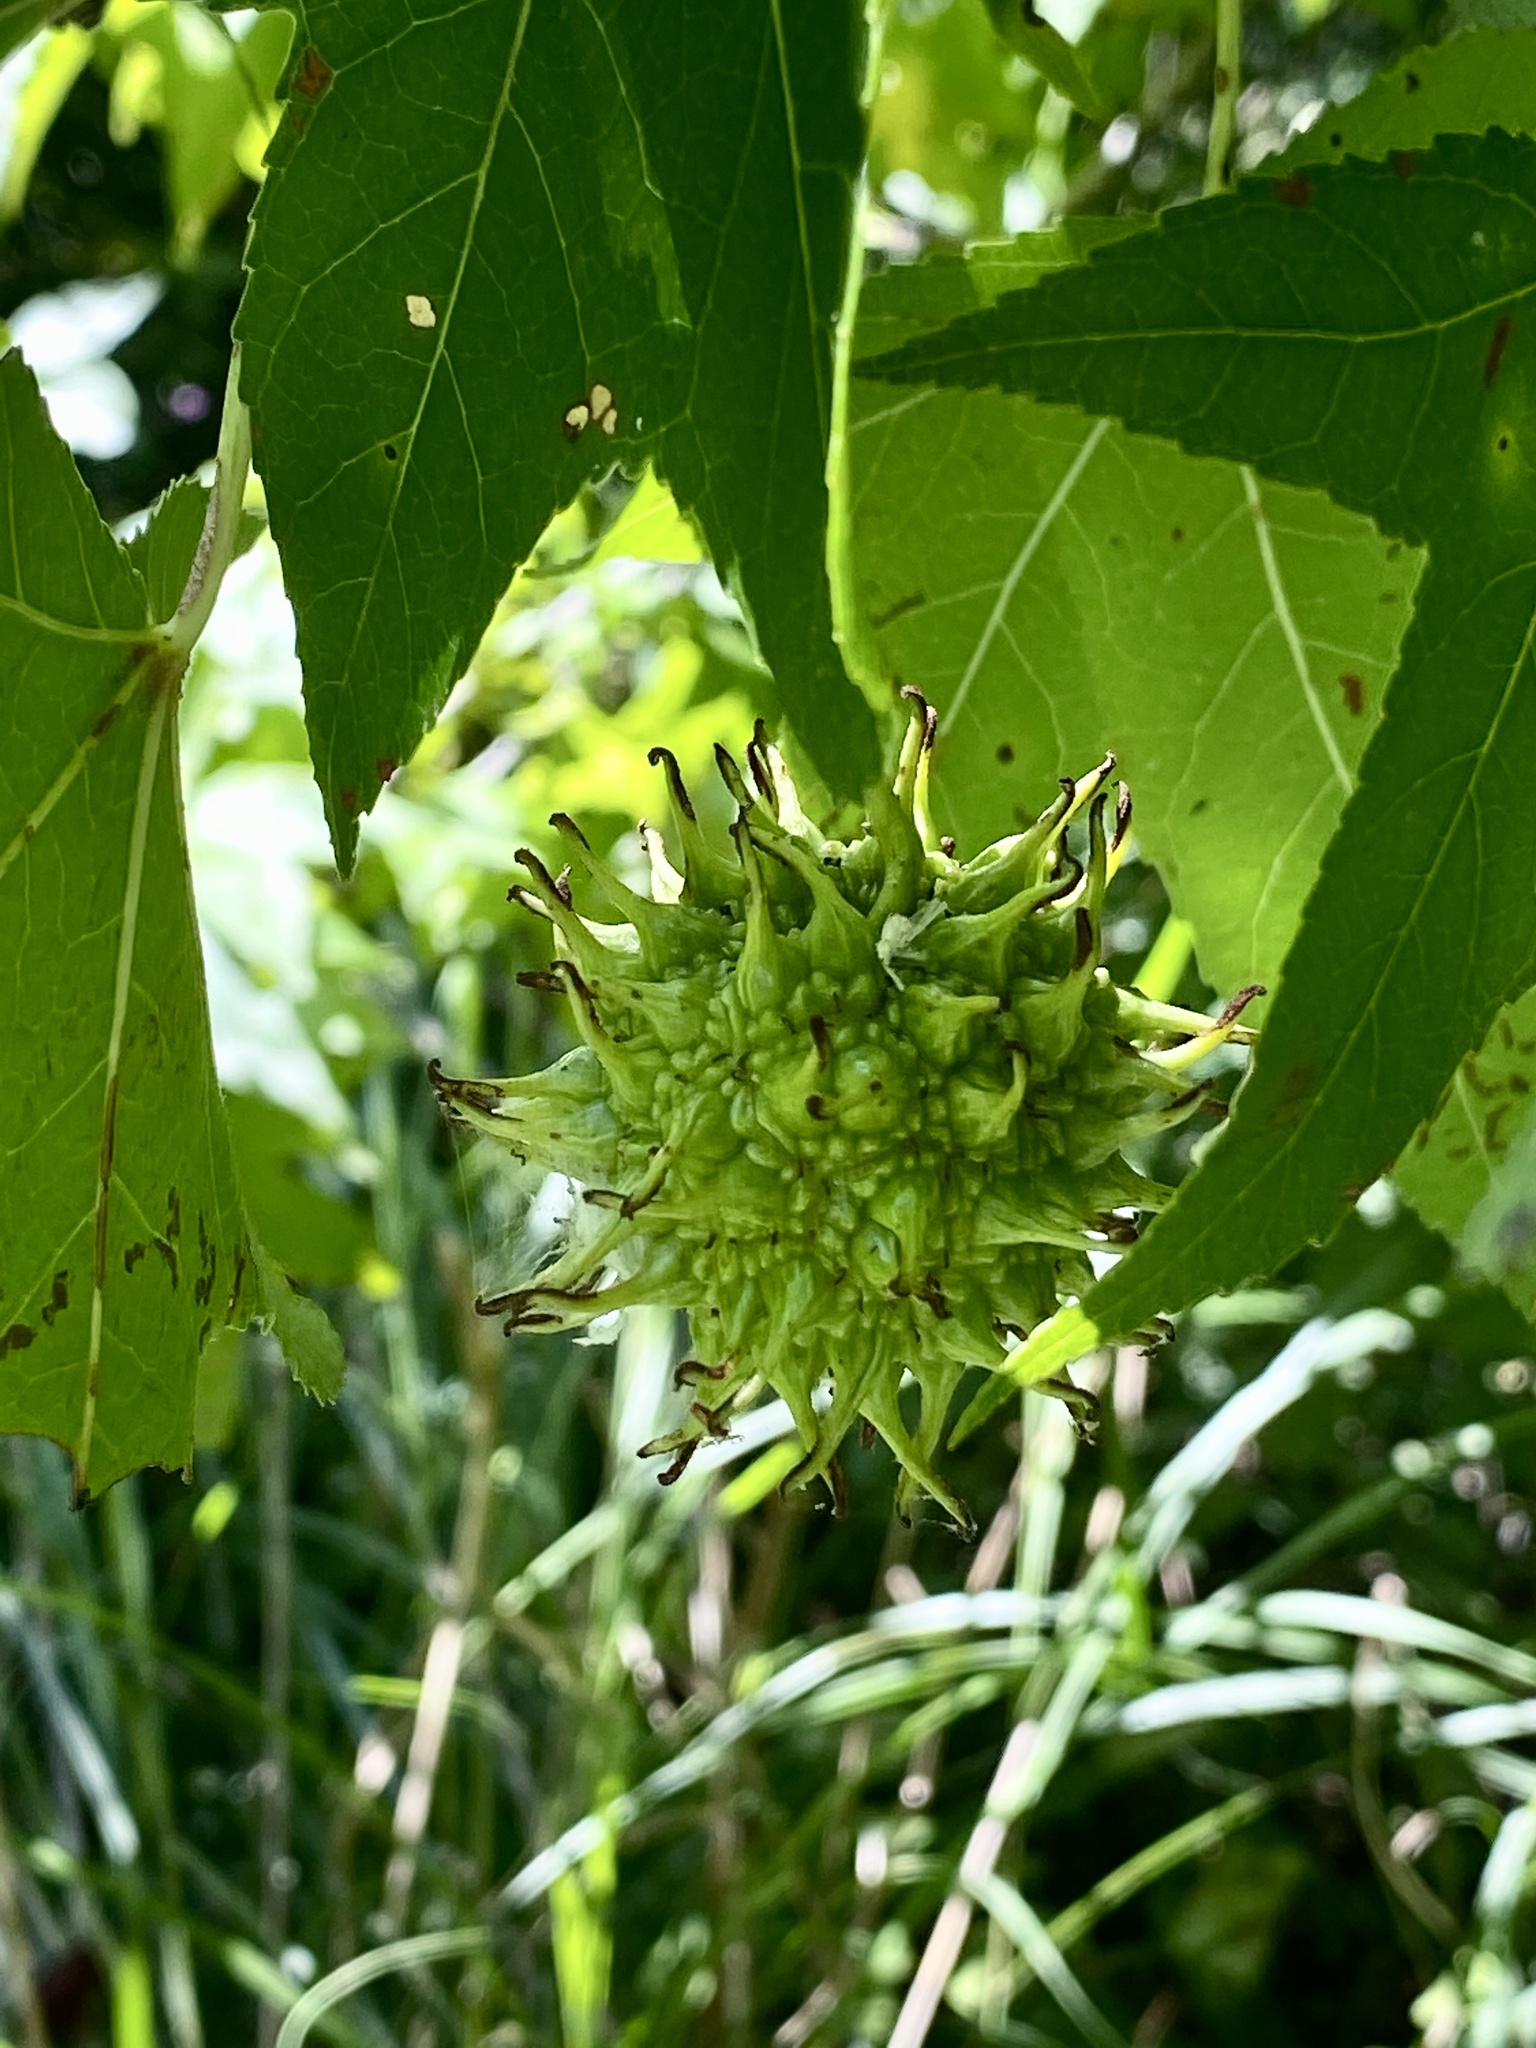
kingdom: Plantae
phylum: Tracheophyta
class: Magnoliopsida
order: Saxifragales
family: Altingiaceae
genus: Liquidambar
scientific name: Liquidambar styraciflua
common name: Sweet gum
